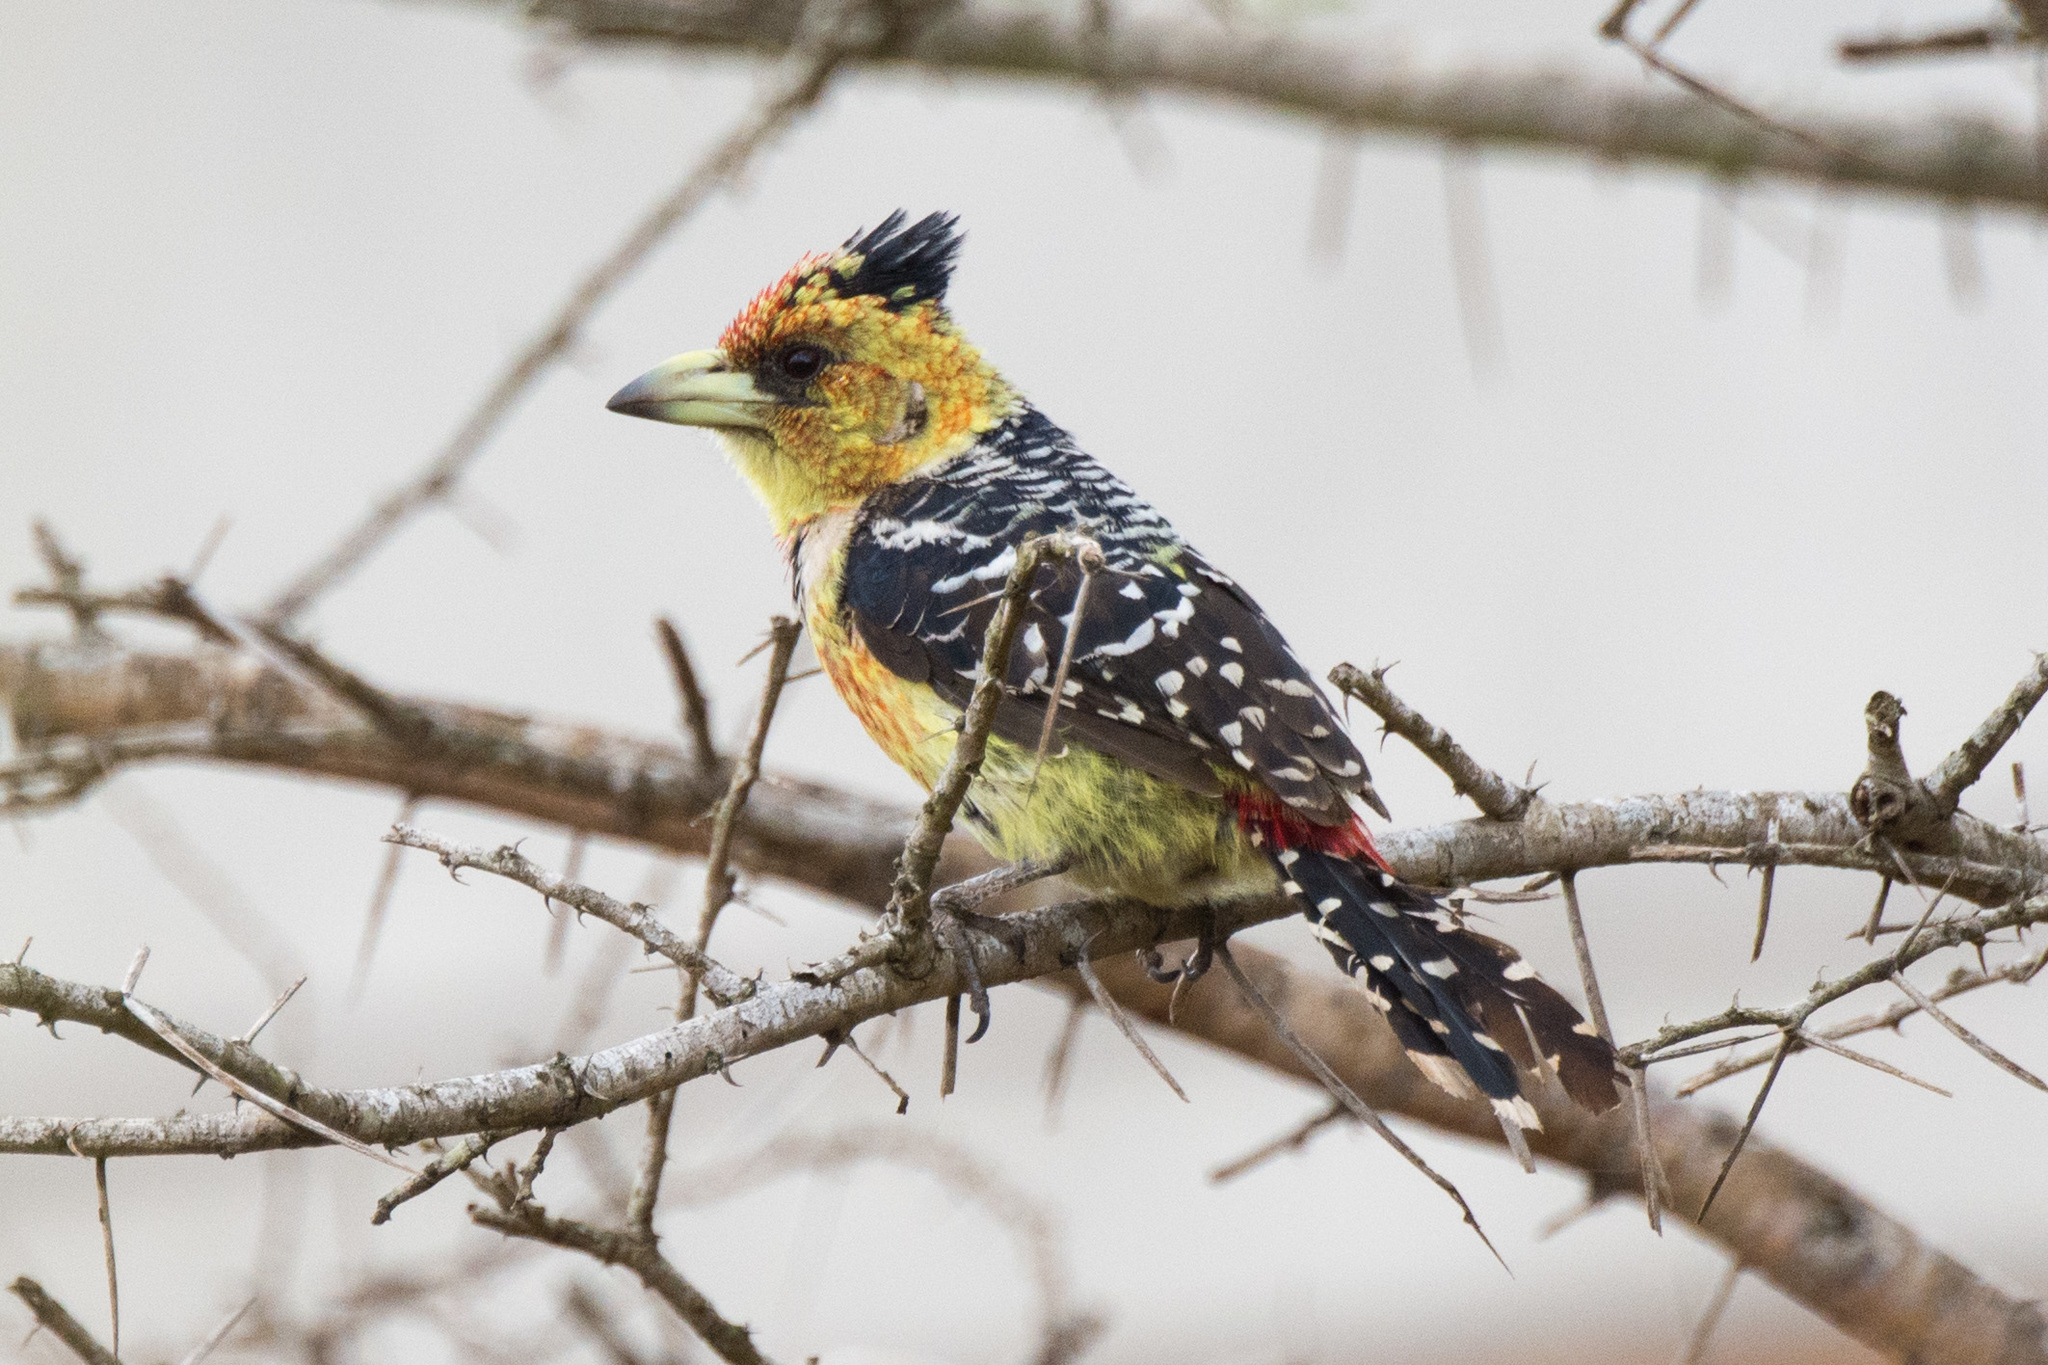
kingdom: Animalia
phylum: Chordata
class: Aves
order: Piciformes
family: Lybiidae
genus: Trachyphonus
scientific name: Trachyphonus vaillantii
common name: Crested barbet
